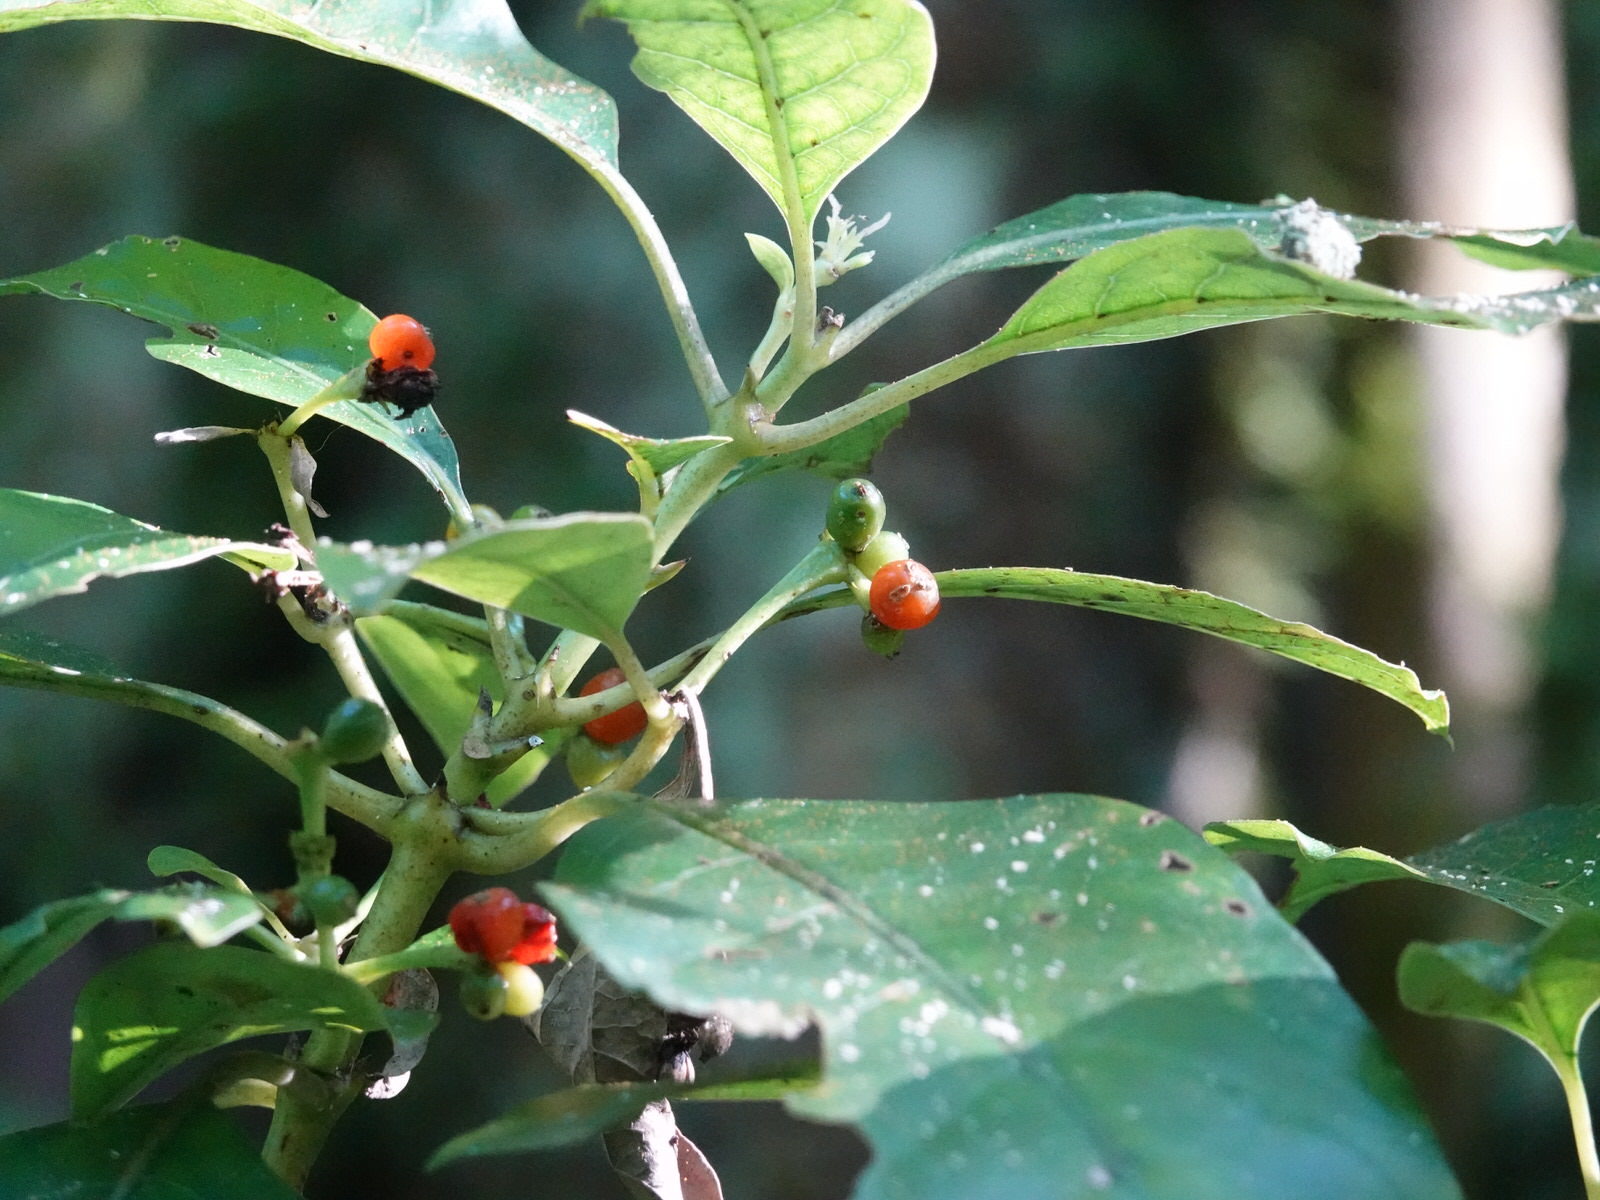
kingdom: Plantae
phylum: Tracheophyta
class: Magnoliopsida
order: Gentianales
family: Rubiaceae
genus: Coprosma
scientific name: Coprosma autumnalis
